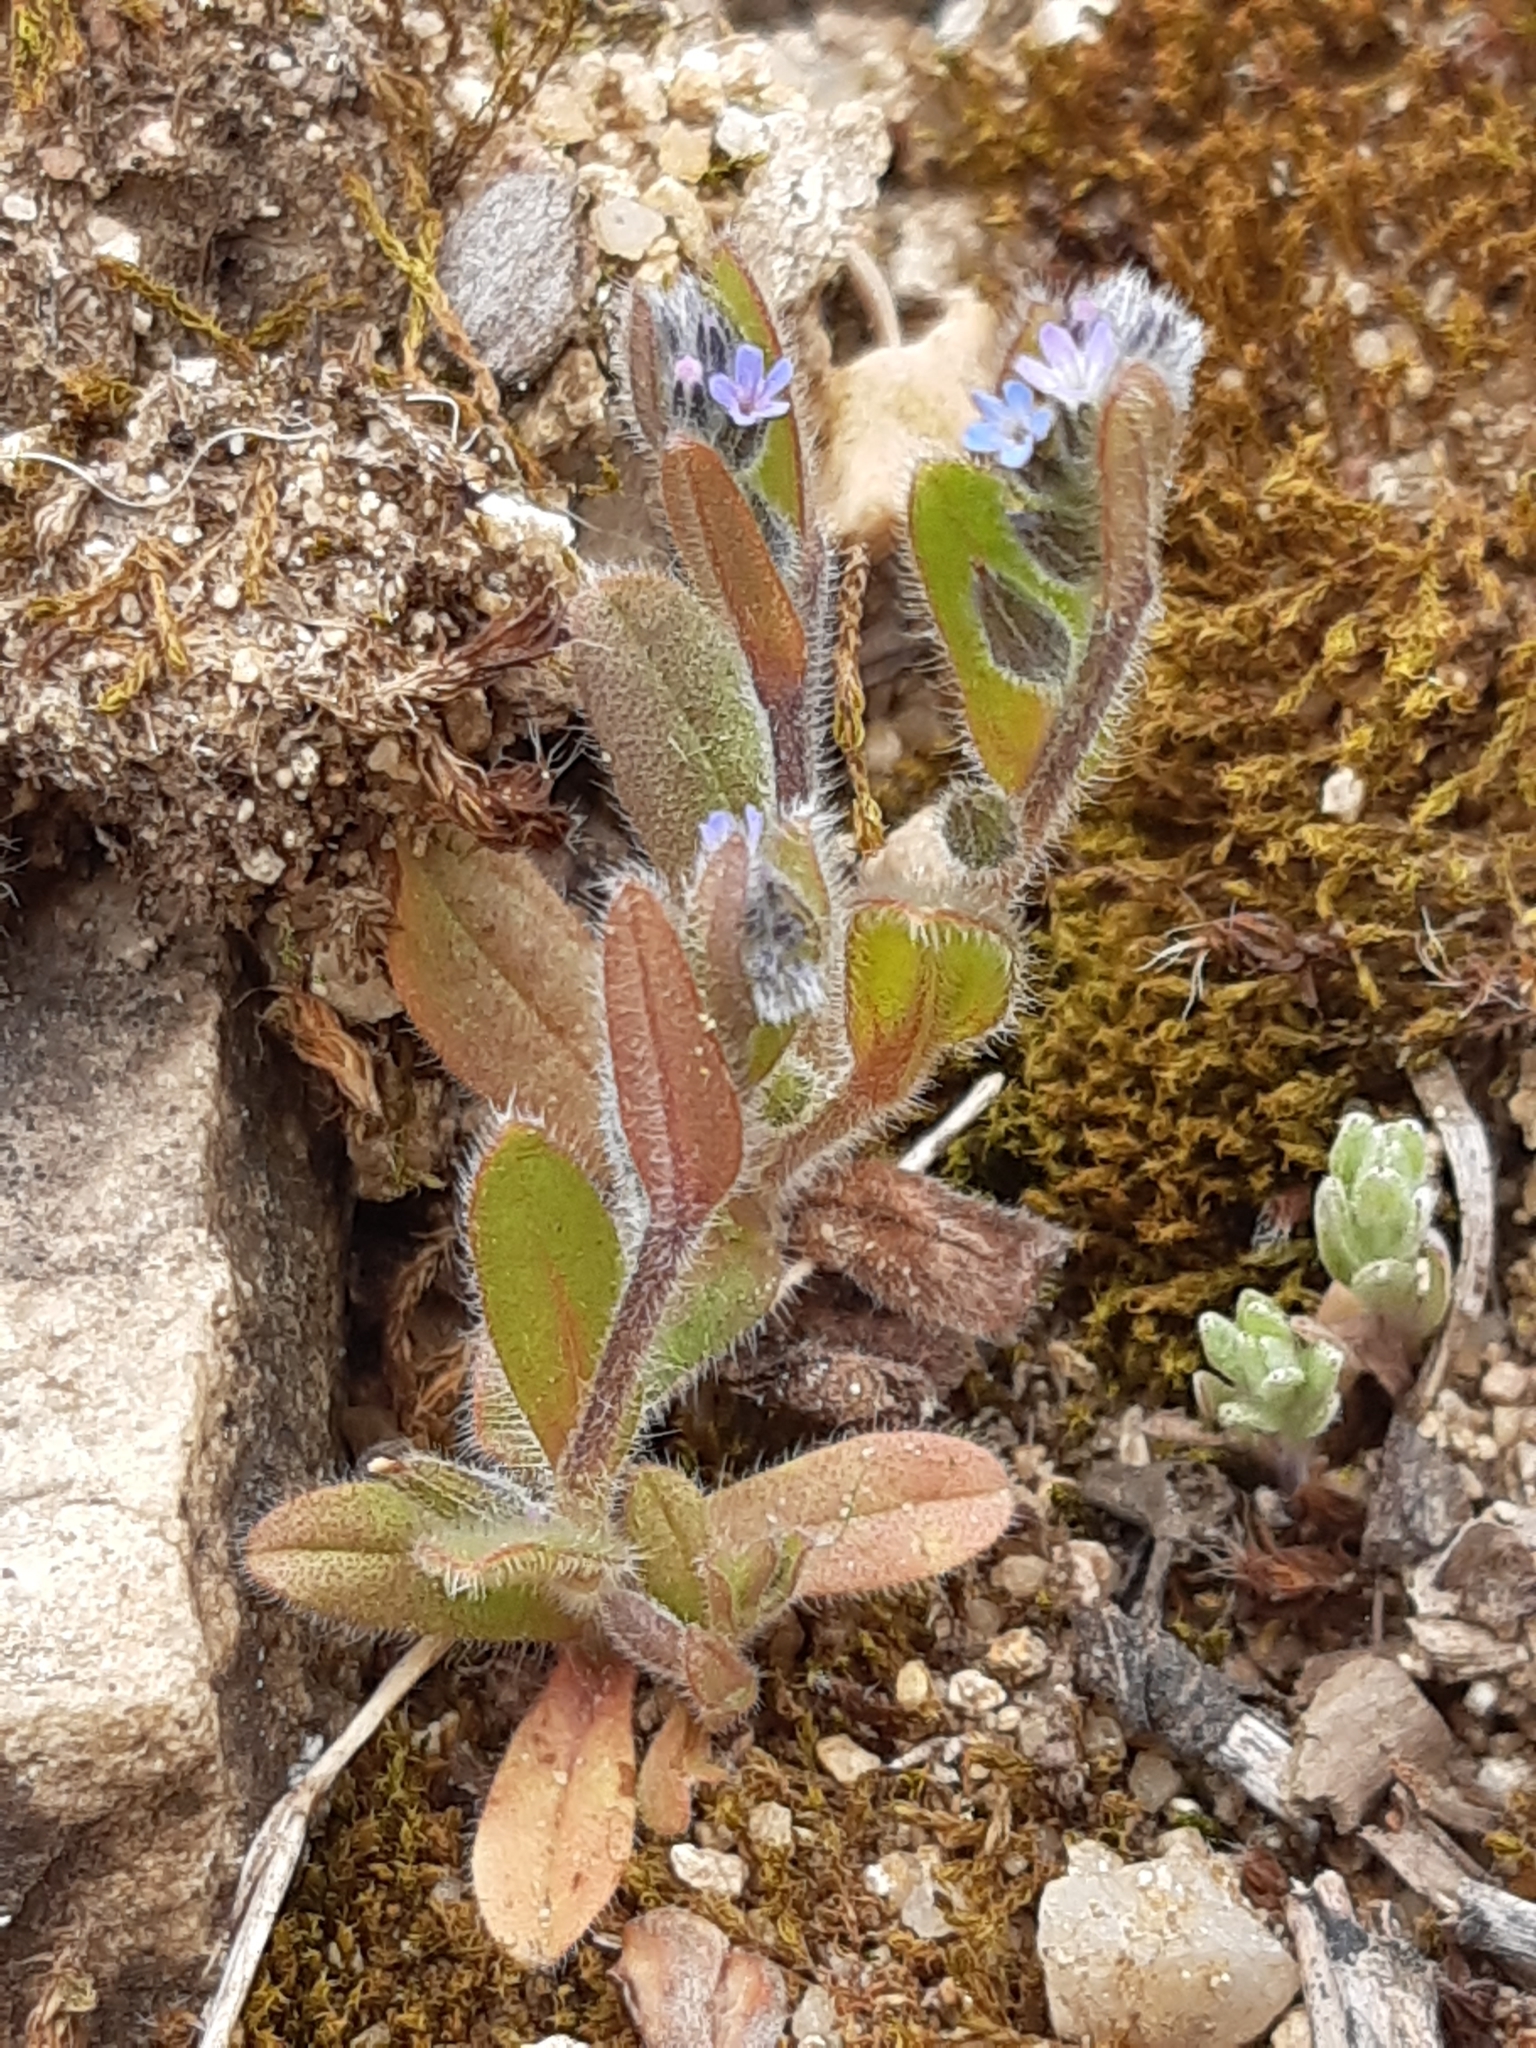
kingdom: Plantae
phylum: Tracheophyta
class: Magnoliopsida
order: Boraginales
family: Boraginaceae
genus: Myosotis
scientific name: Myosotis ramosissima
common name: Early forget-me-not
